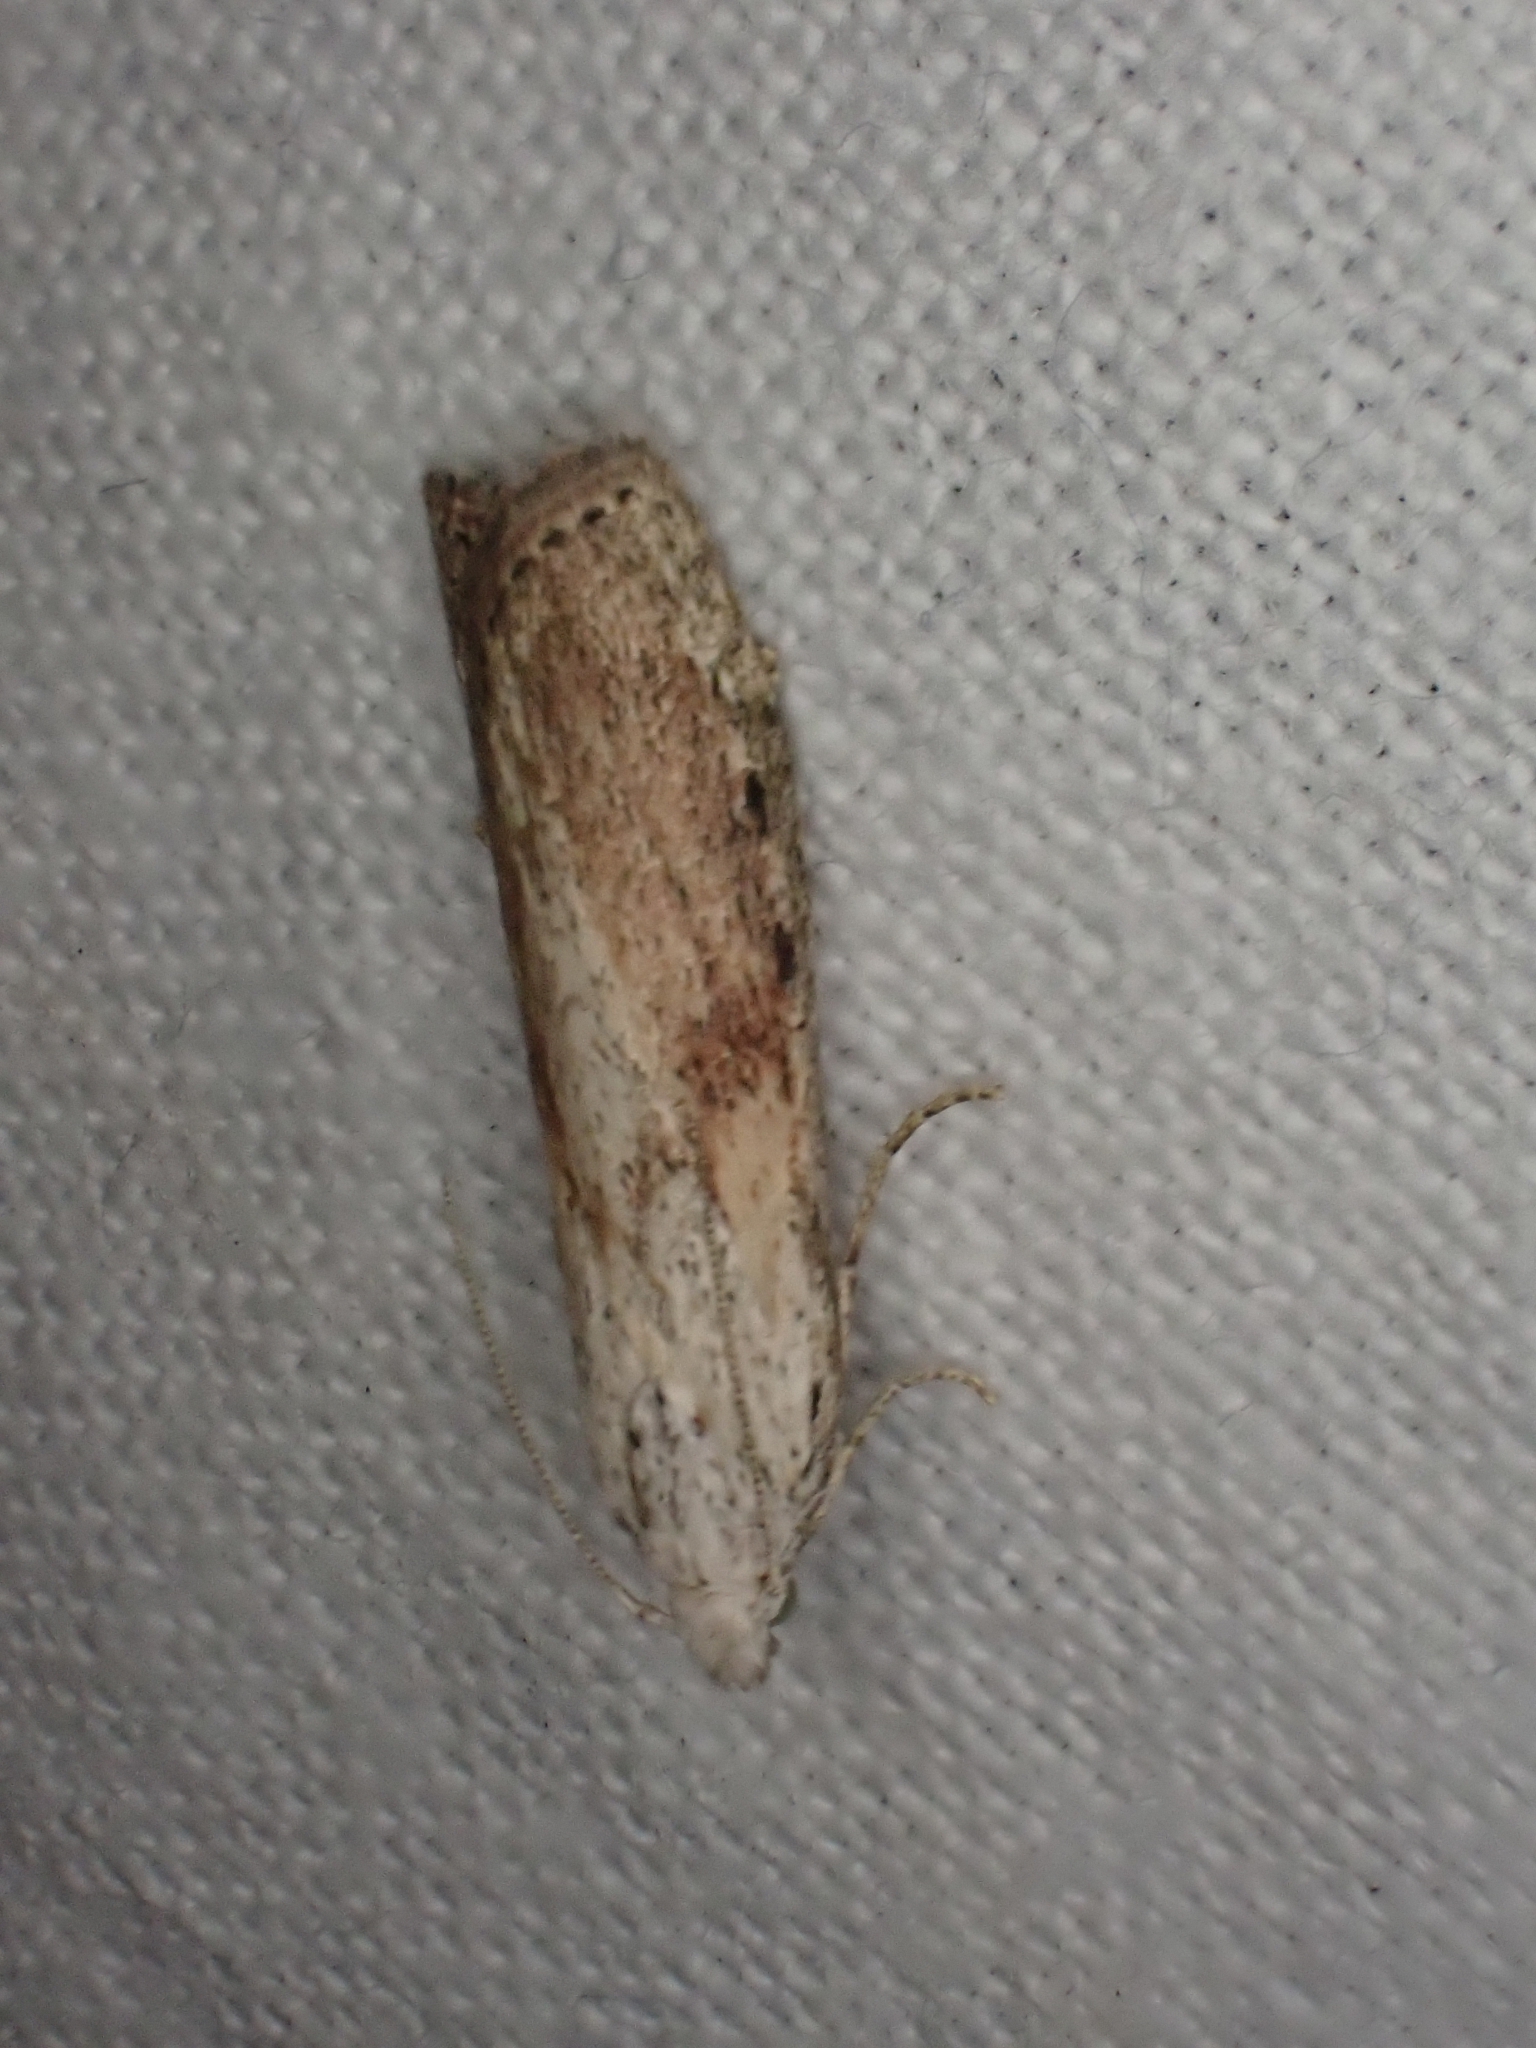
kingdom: Animalia
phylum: Arthropoda
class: Insecta
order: Lepidoptera
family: Pyralidae
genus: Aphomia
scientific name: Aphomia sociella
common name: Bee moth
